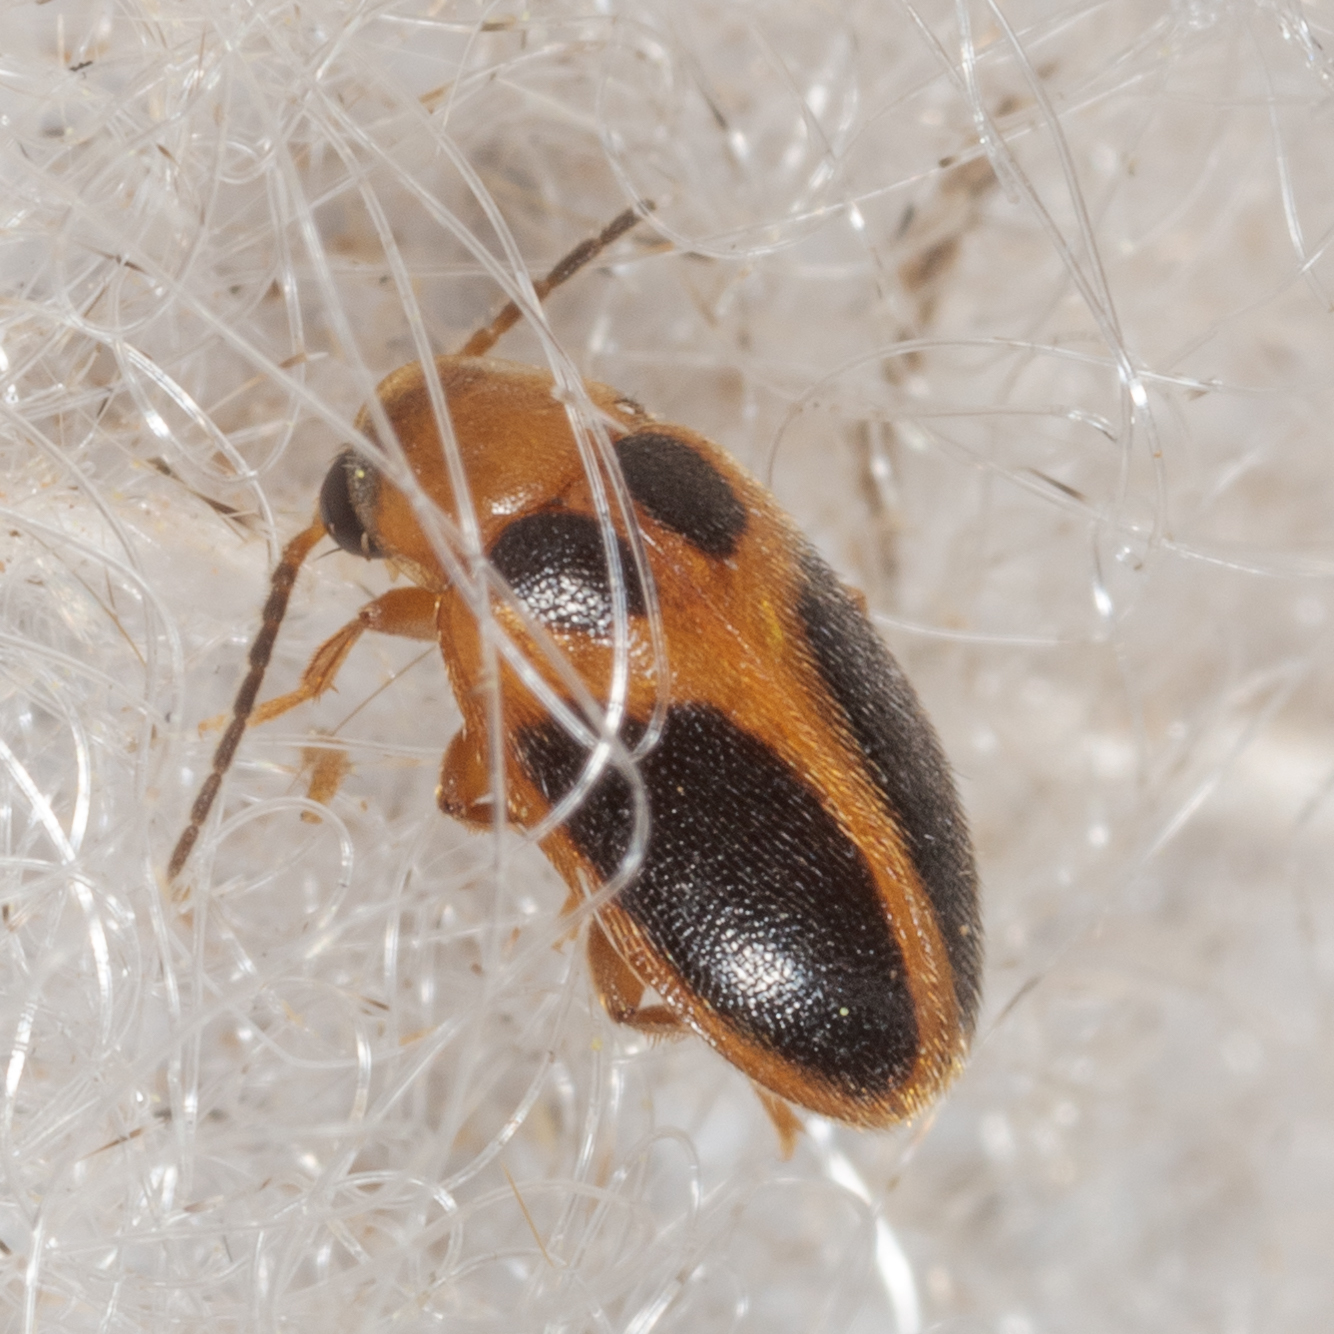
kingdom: Animalia
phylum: Arthropoda
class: Insecta
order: Coleoptera
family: Scirtidae
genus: Sacodes
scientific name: Sacodes pulchella
